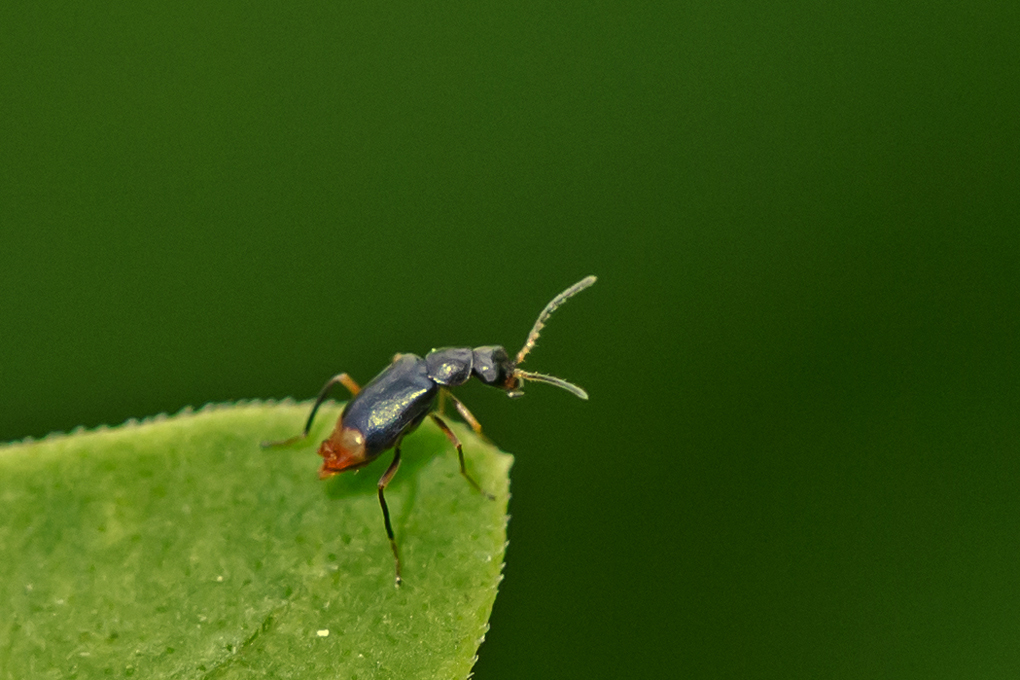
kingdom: Animalia
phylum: Arthropoda
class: Insecta
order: Coleoptera
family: Melyridae
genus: Hypebaeus
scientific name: Hypebaeus
